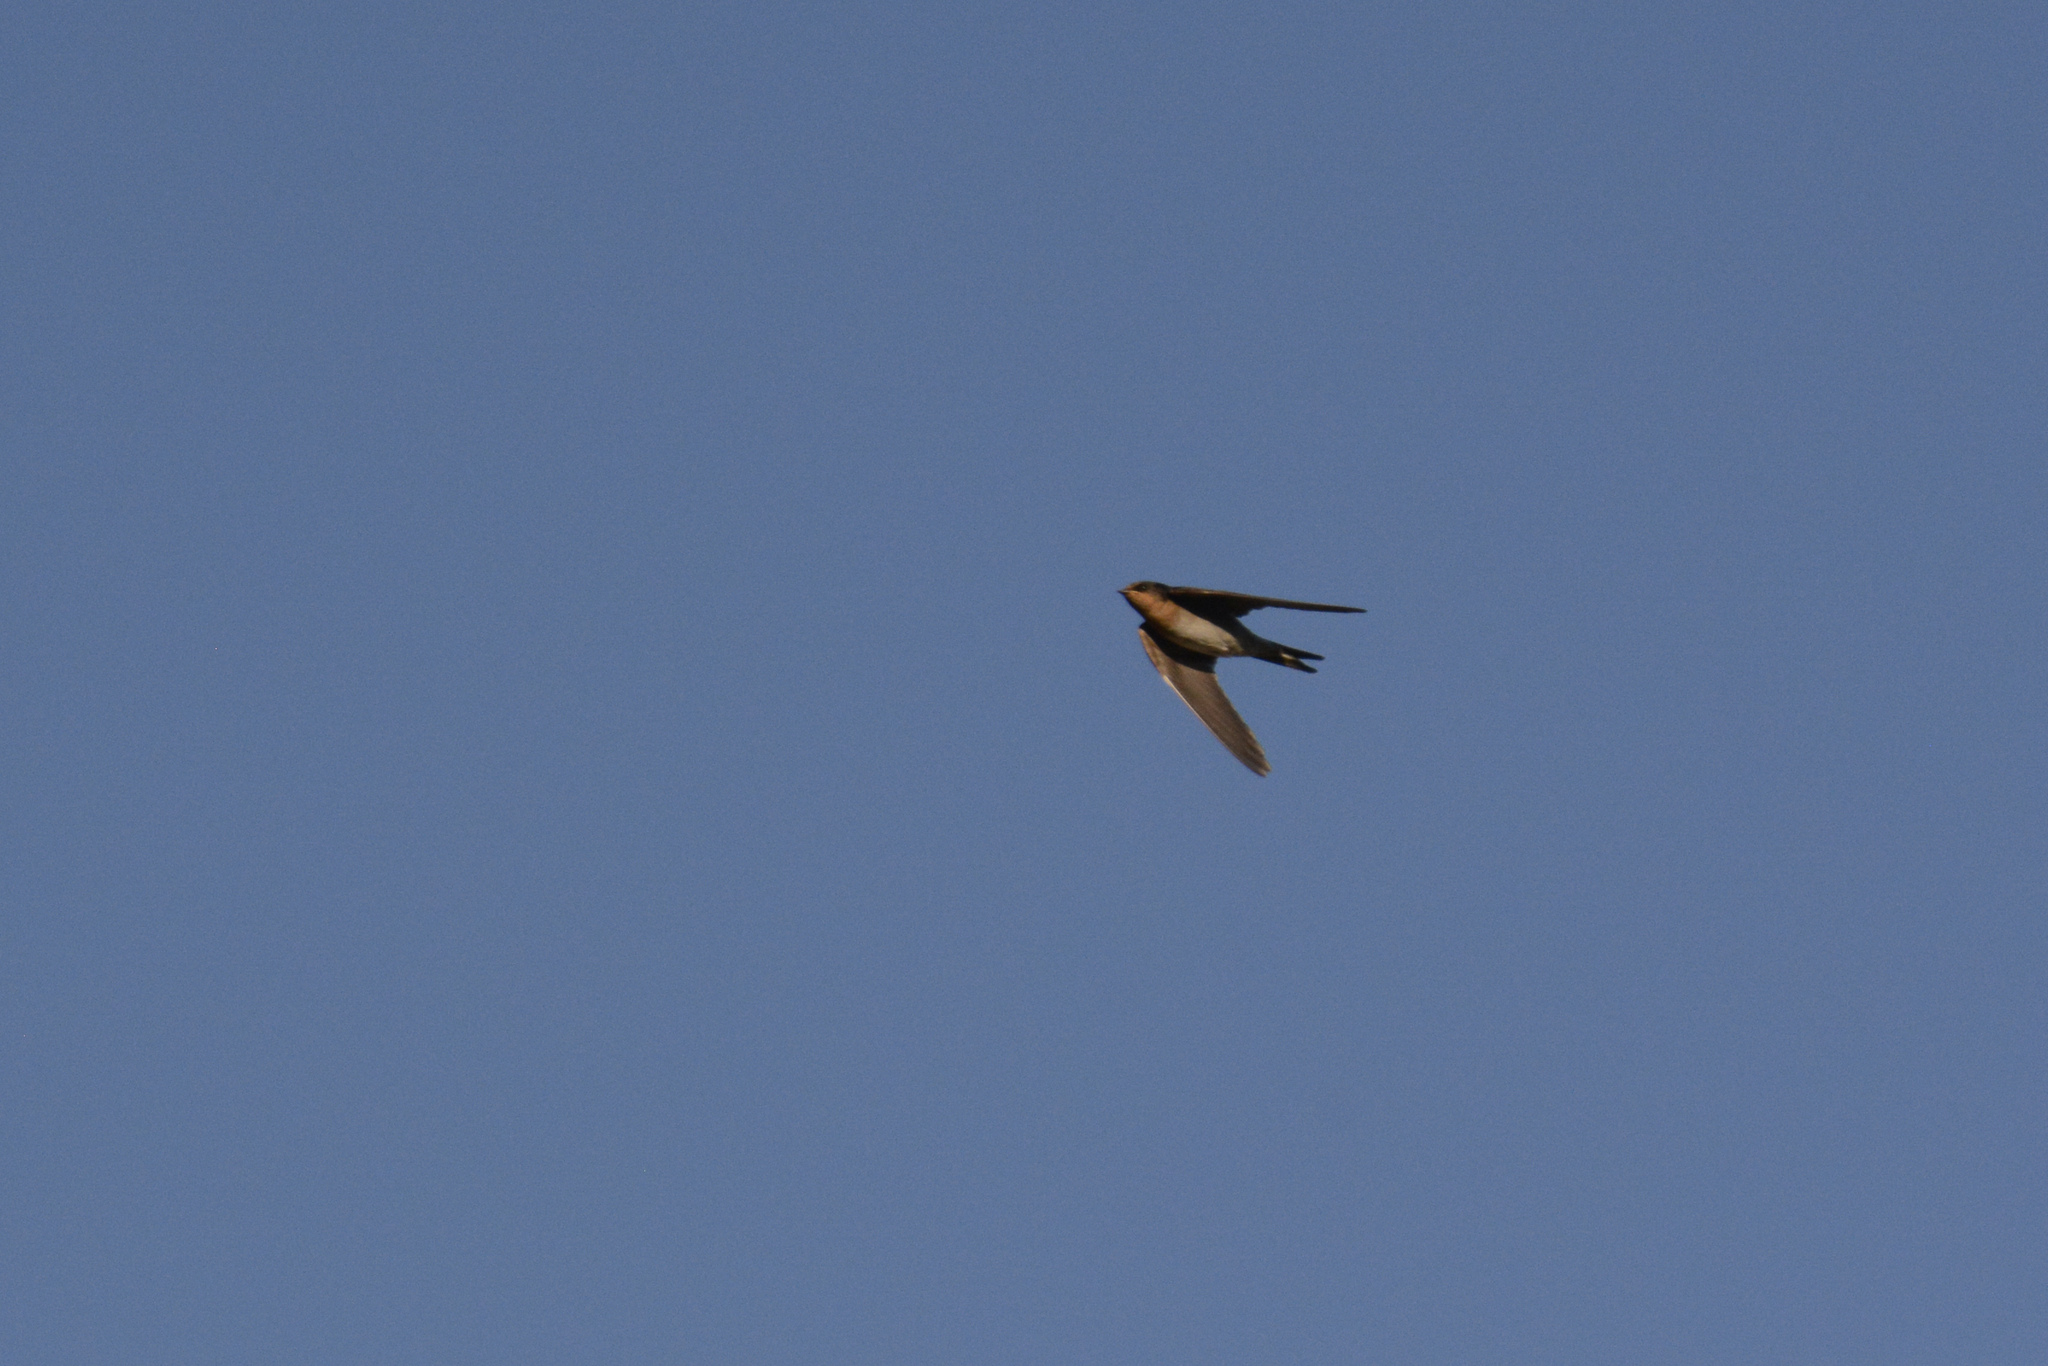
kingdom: Animalia
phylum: Chordata
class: Aves
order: Passeriformes
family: Hirundinidae
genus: Hirundo
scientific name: Hirundo neoxena
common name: Welcome swallow
